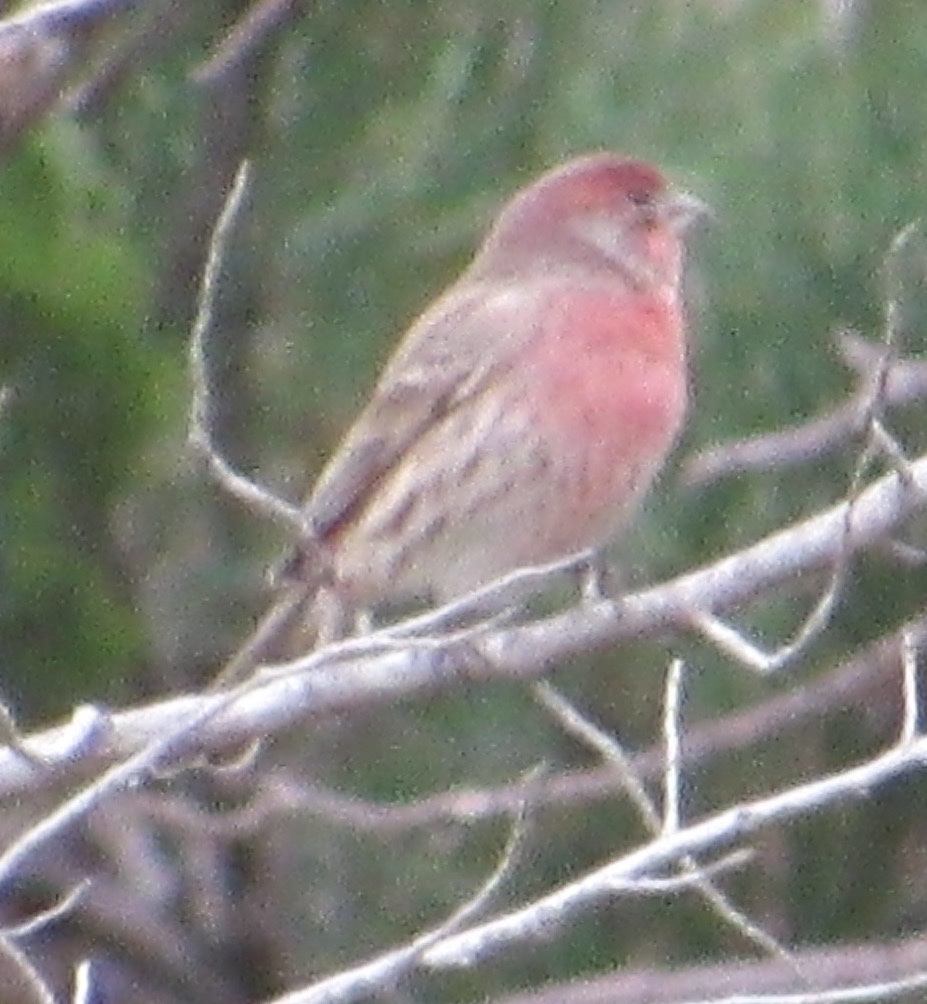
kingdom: Animalia
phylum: Chordata
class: Aves
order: Passeriformes
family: Fringillidae
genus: Haemorhous
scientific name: Haemorhous mexicanus
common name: House finch
